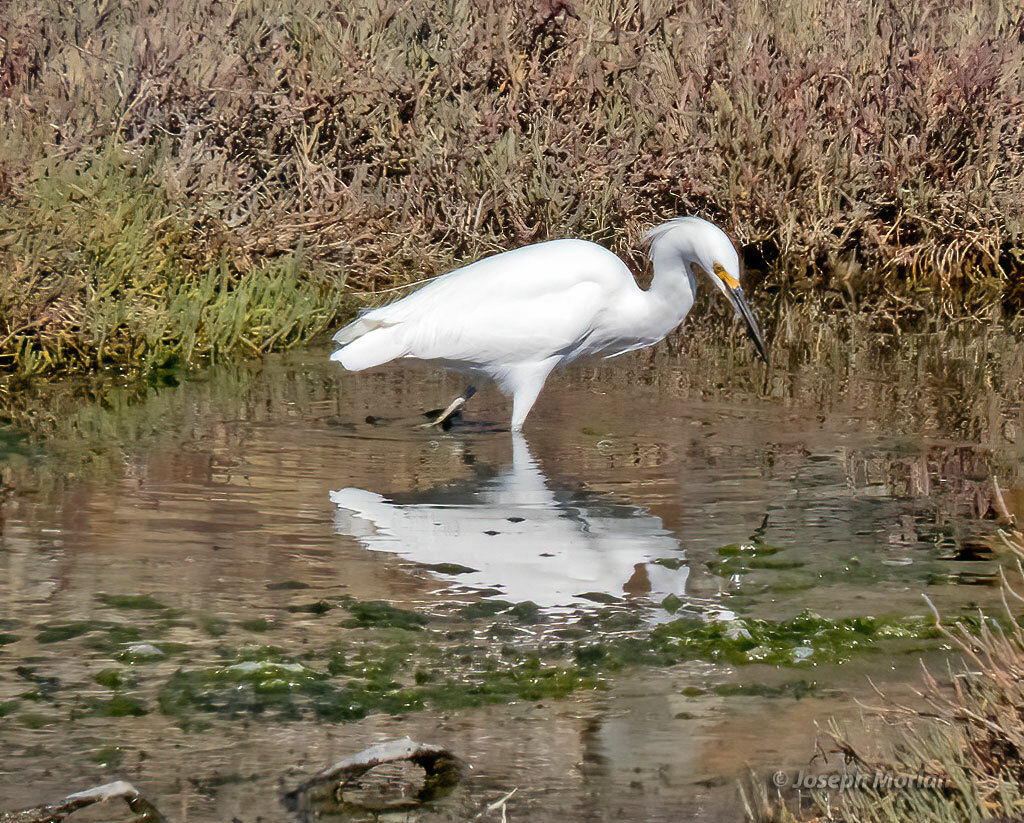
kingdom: Animalia
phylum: Chordata
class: Aves
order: Pelecaniformes
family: Ardeidae
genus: Egretta
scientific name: Egretta thula
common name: Snowy egret
